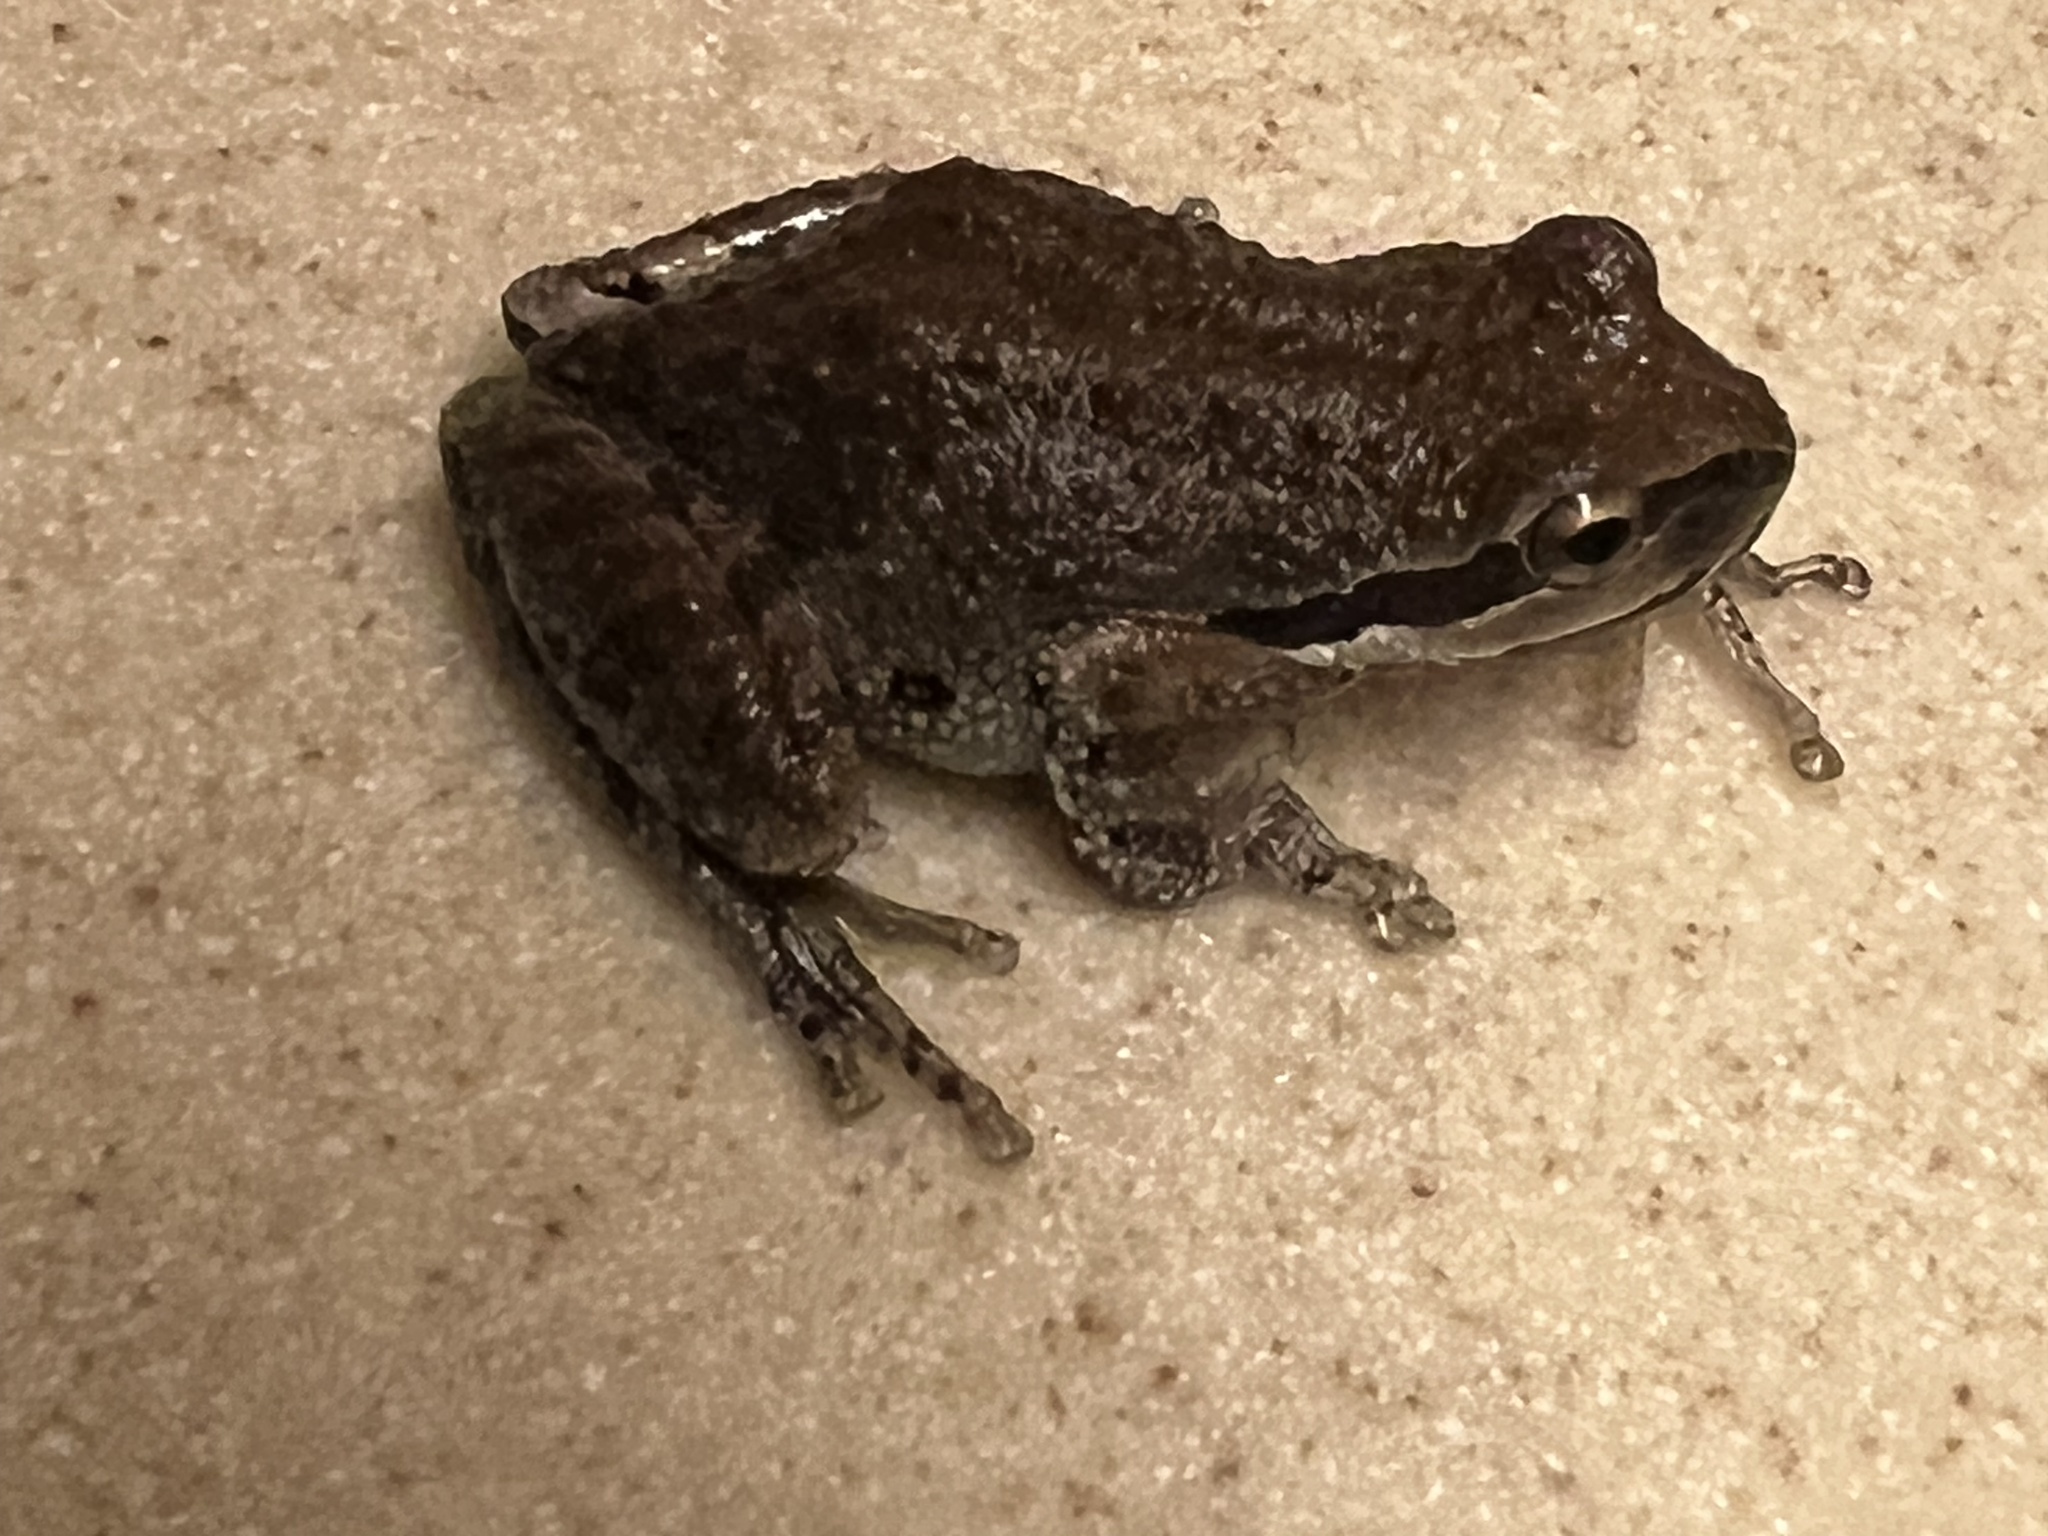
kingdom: Animalia
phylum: Chordata
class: Amphibia
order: Anura
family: Hylidae
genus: Pseudacris
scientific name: Pseudacris regilla
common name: Pacific chorus frog
